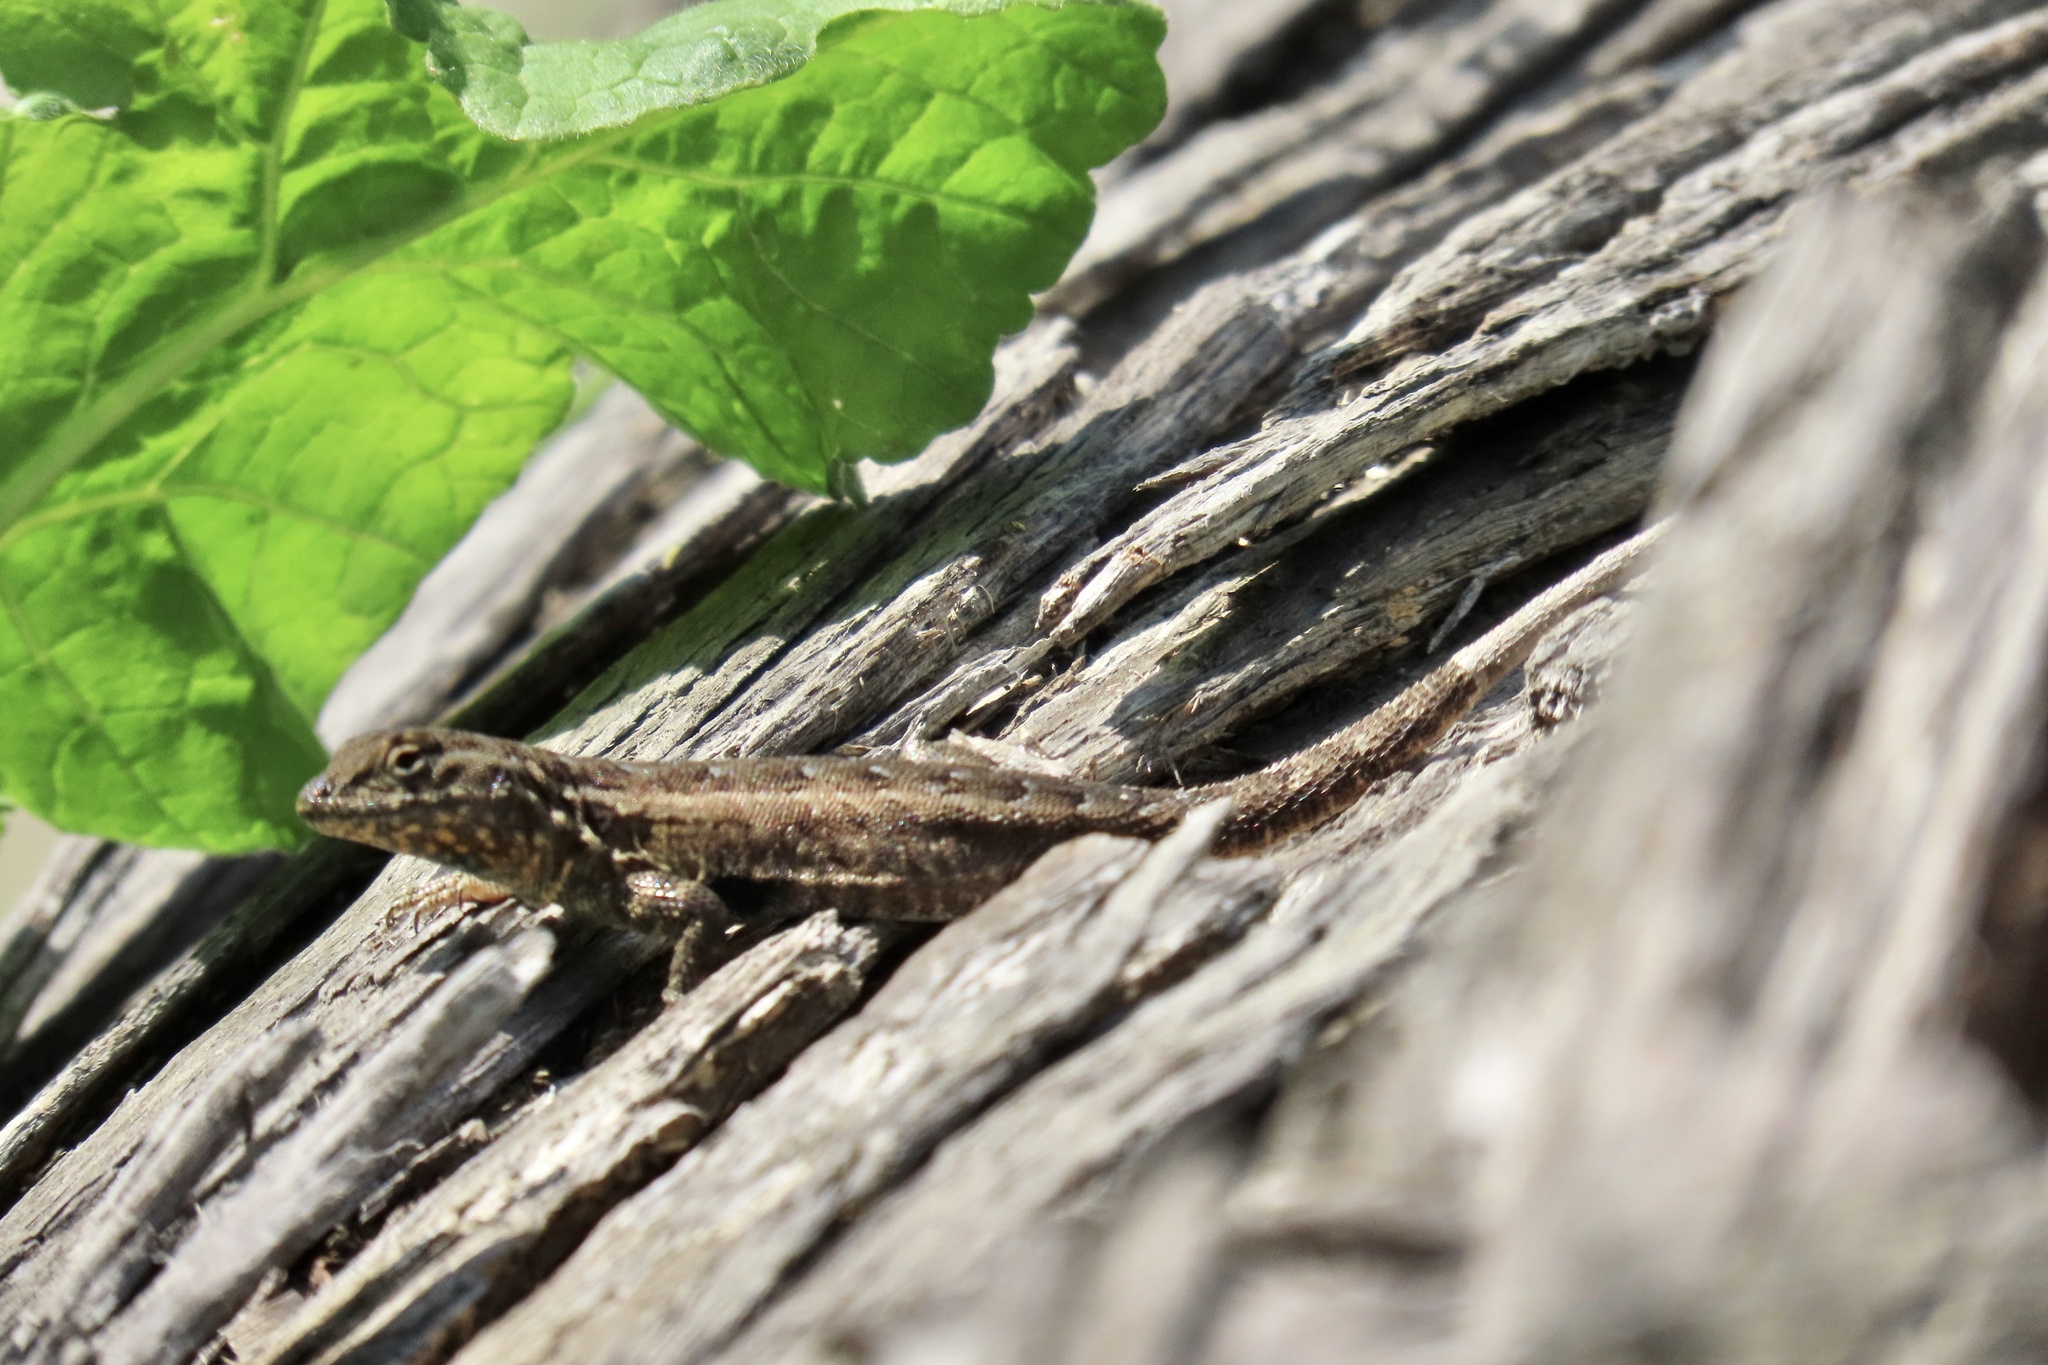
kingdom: Animalia
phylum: Chordata
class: Squamata
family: Phrynosomatidae
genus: Uta
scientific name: Uta stansburiana
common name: Side-blotched lizard
